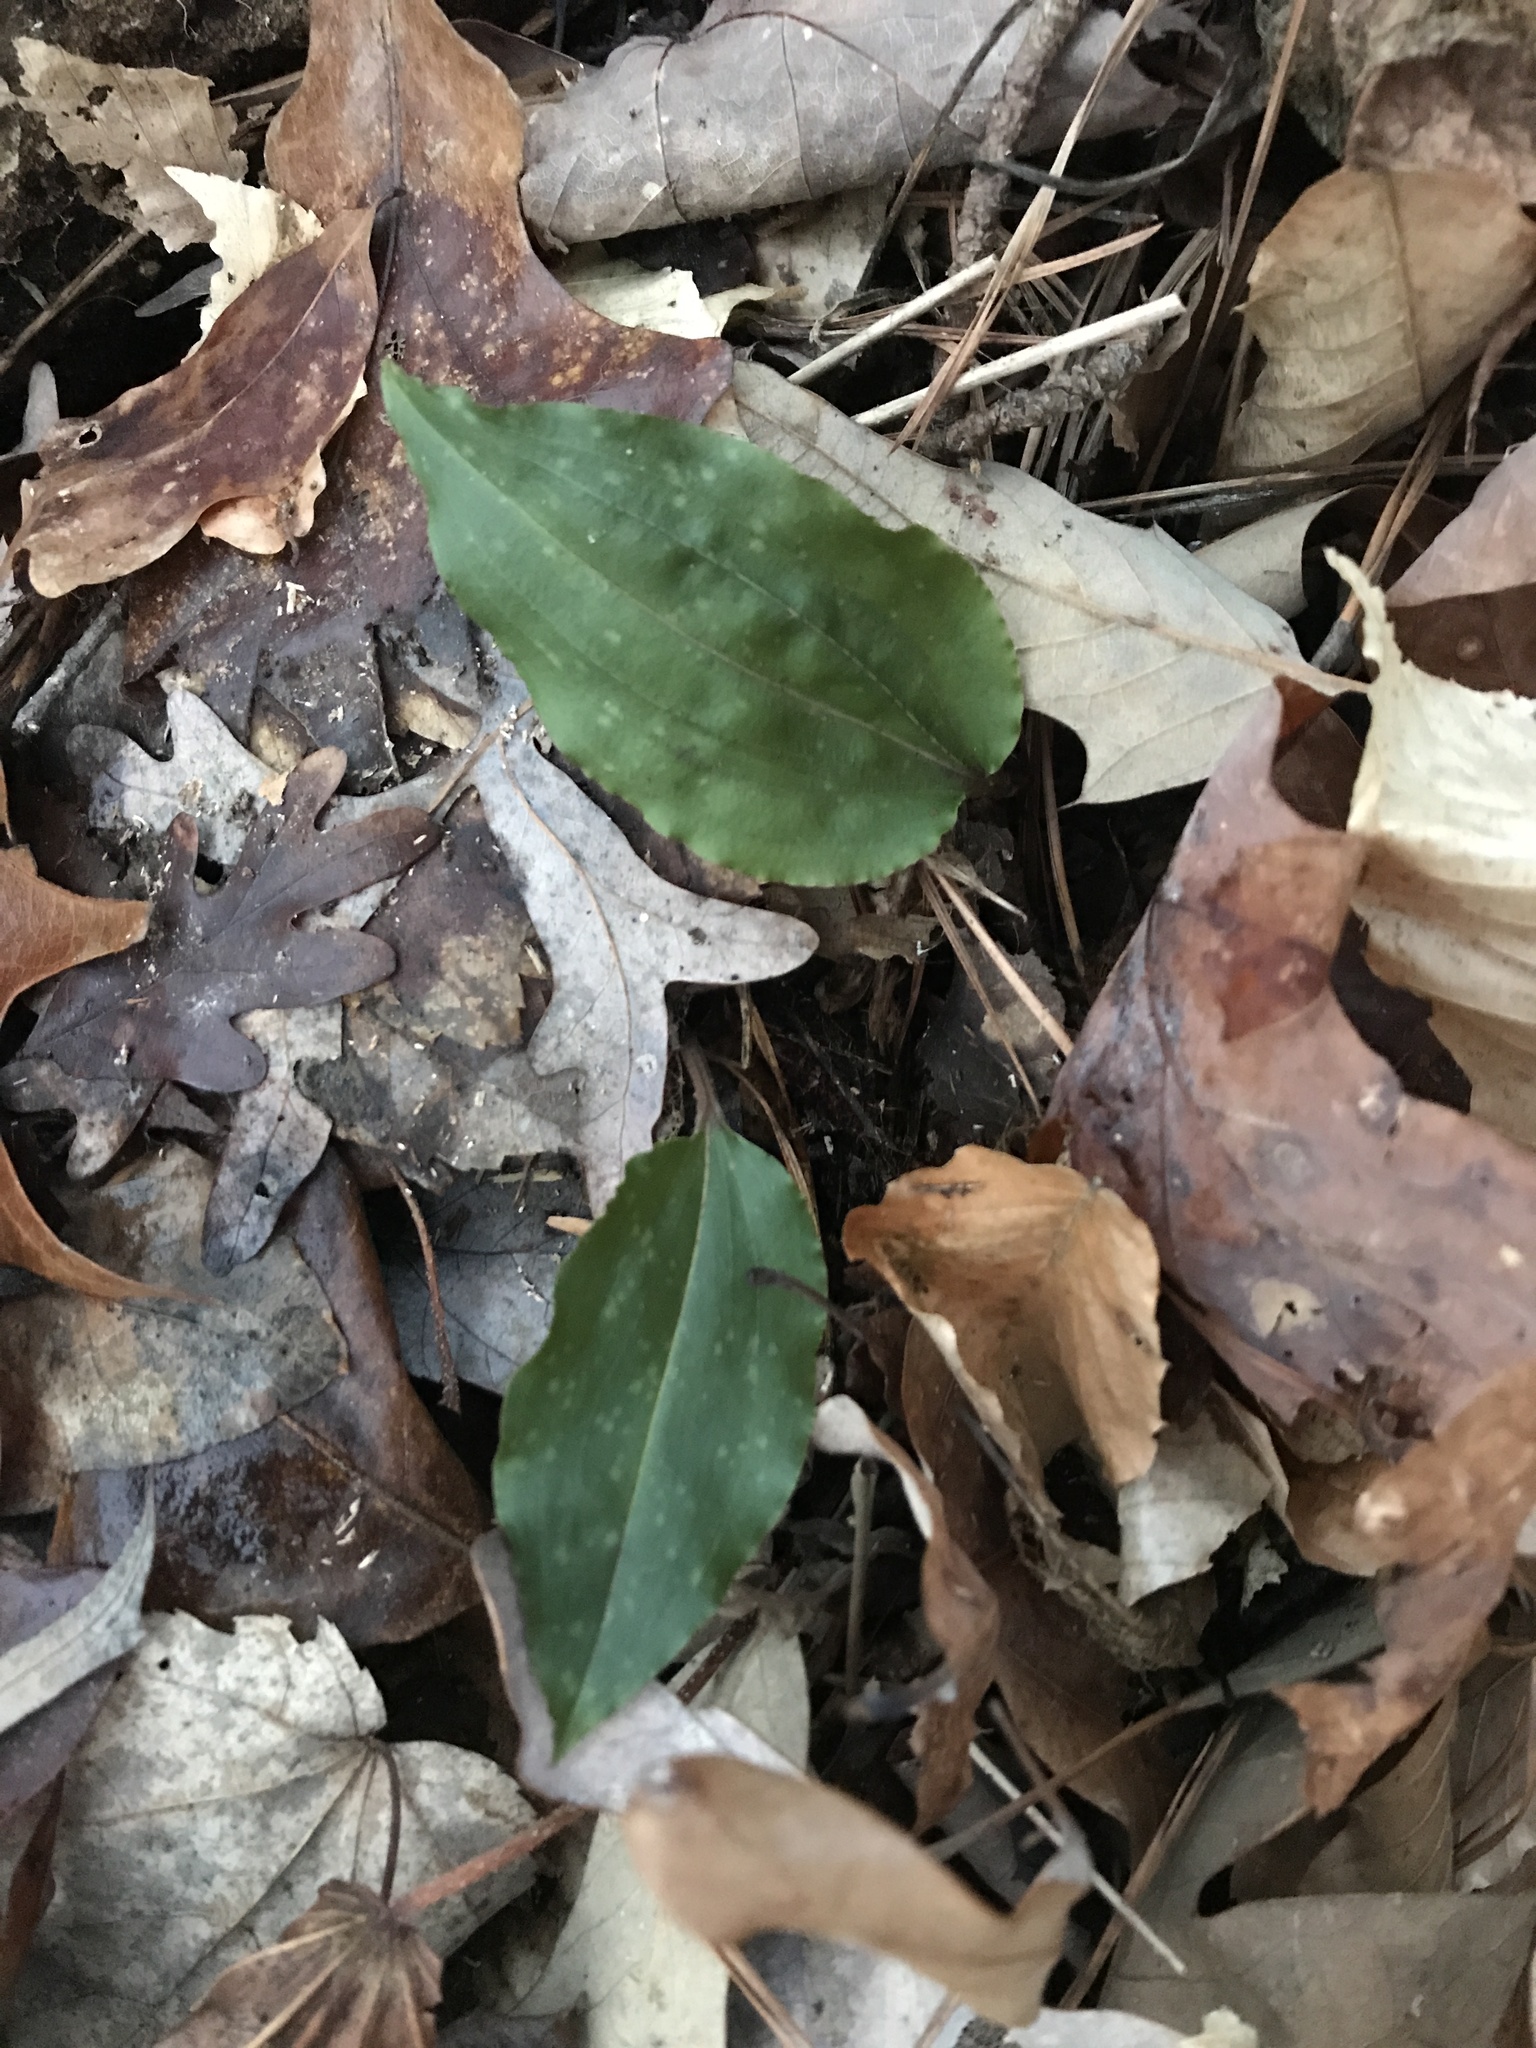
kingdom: Plantae
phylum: Tracheophyta
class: Liliopsida
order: Asparagales
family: Orchidaceae
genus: Tipularia
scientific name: Tipularia discolor
